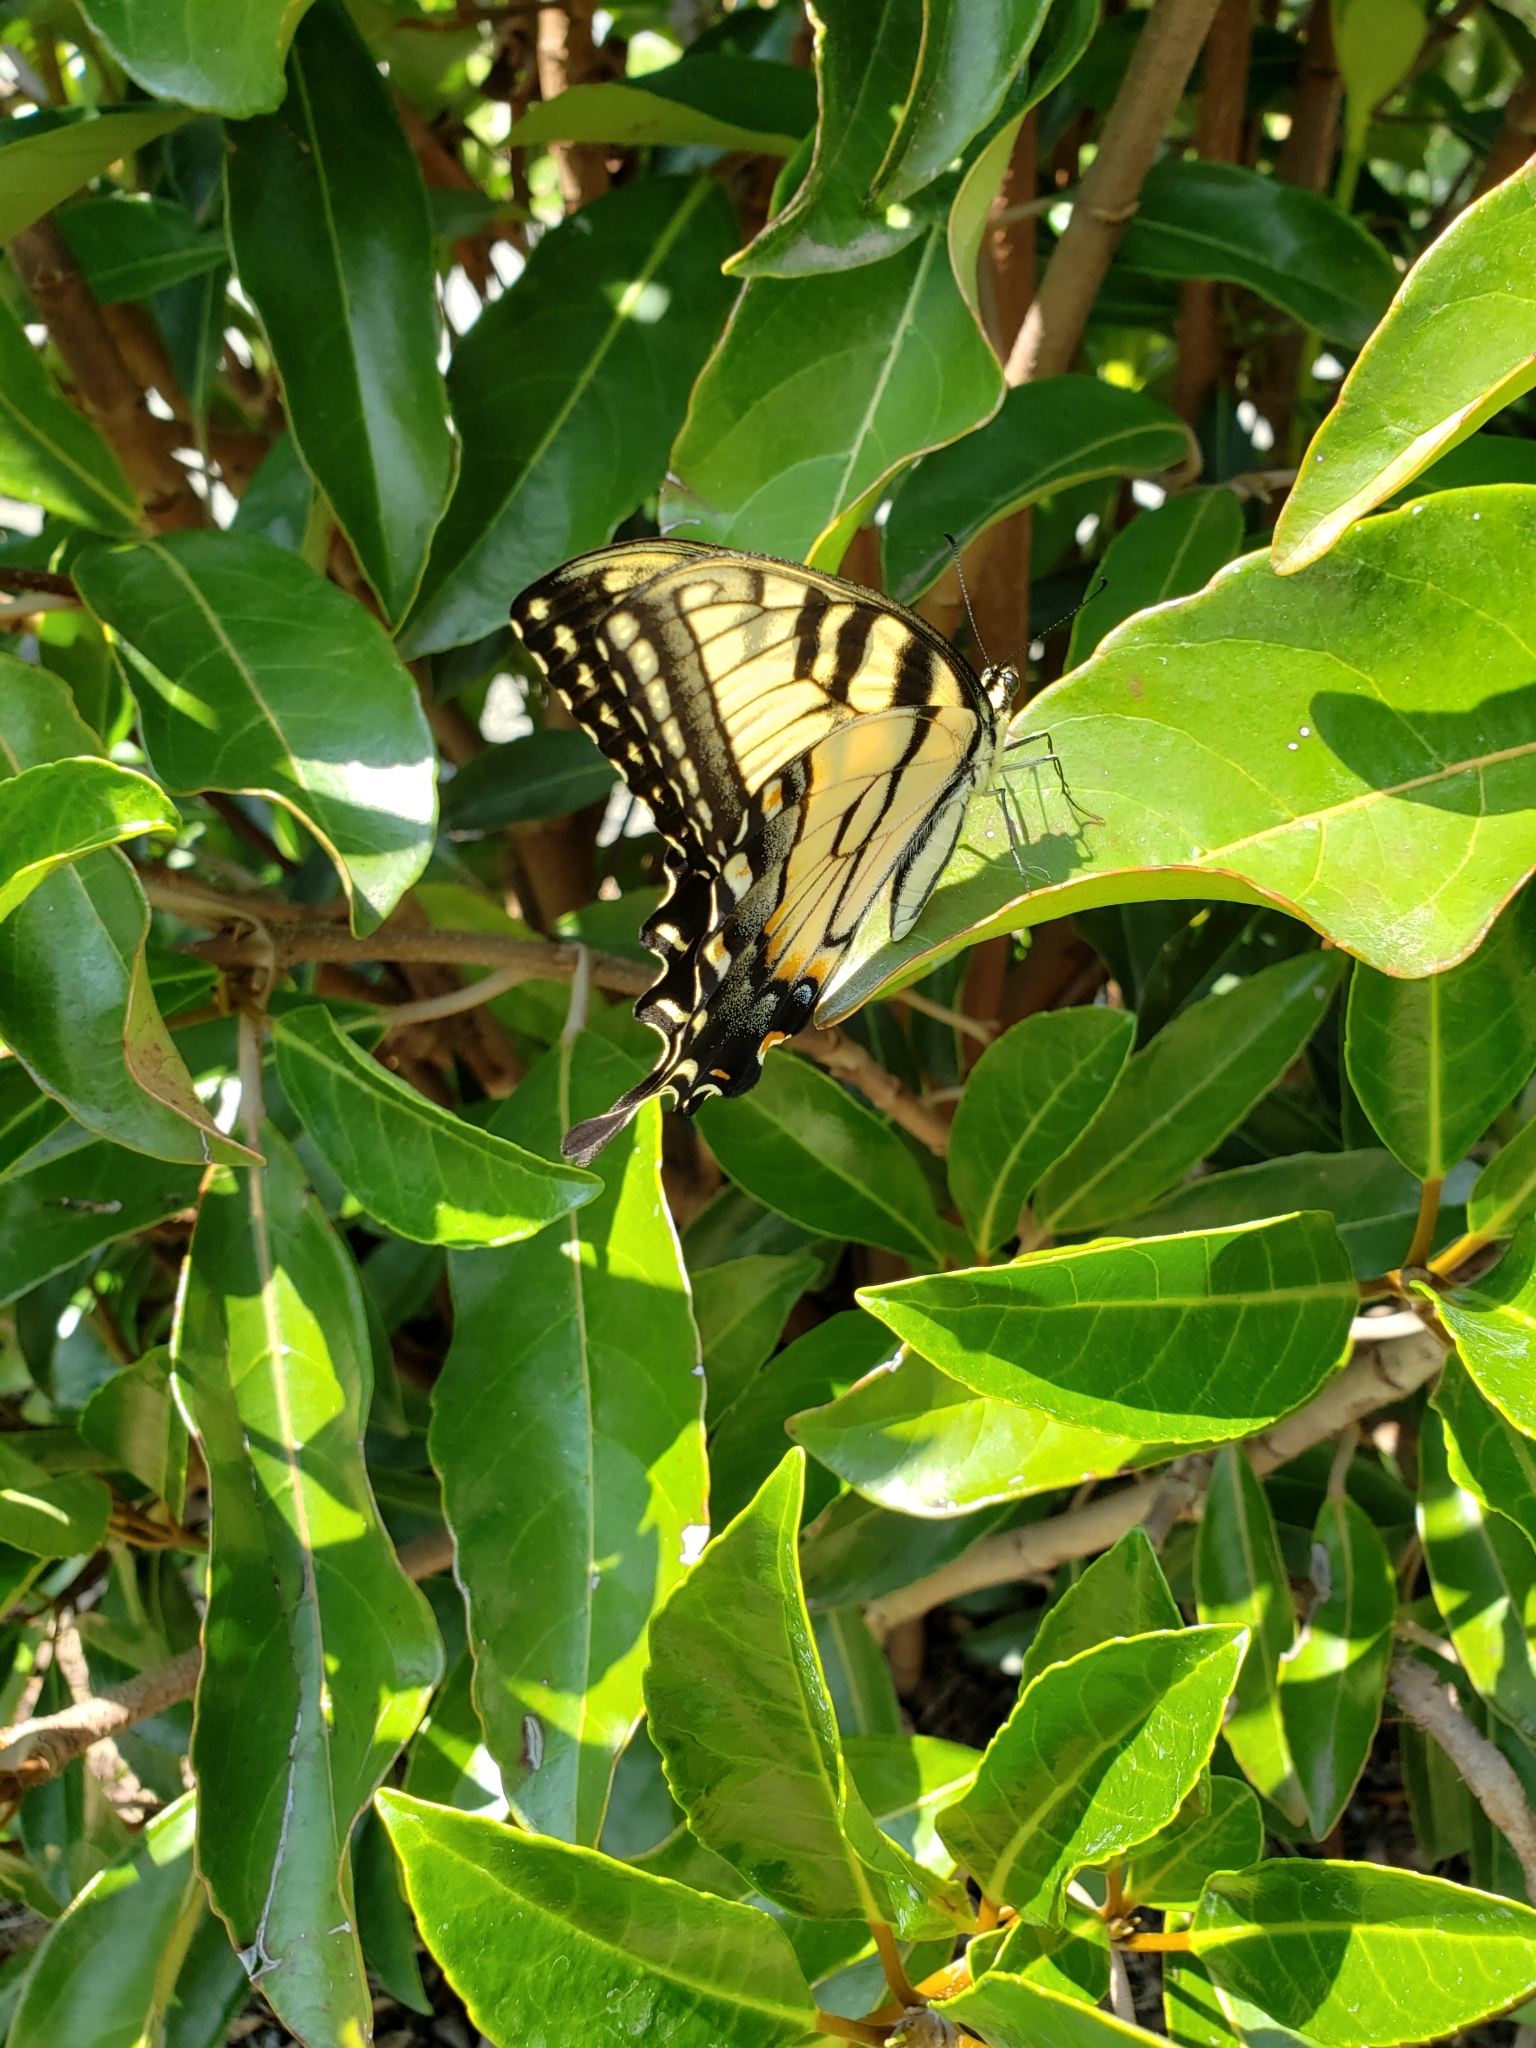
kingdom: Animalia
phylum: Arthropoda
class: Insecta
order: Lepidoptera
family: Papilionidae
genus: Papilio
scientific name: Papilio glaucus
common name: Tiger swallowtail
